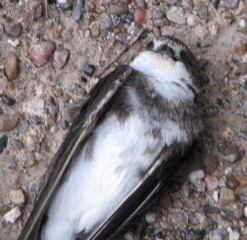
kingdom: Animalia
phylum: Chordata
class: Aves
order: Passeriformes
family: Hirundinidae
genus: Riparia
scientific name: Riparia riparia
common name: Sand martin
